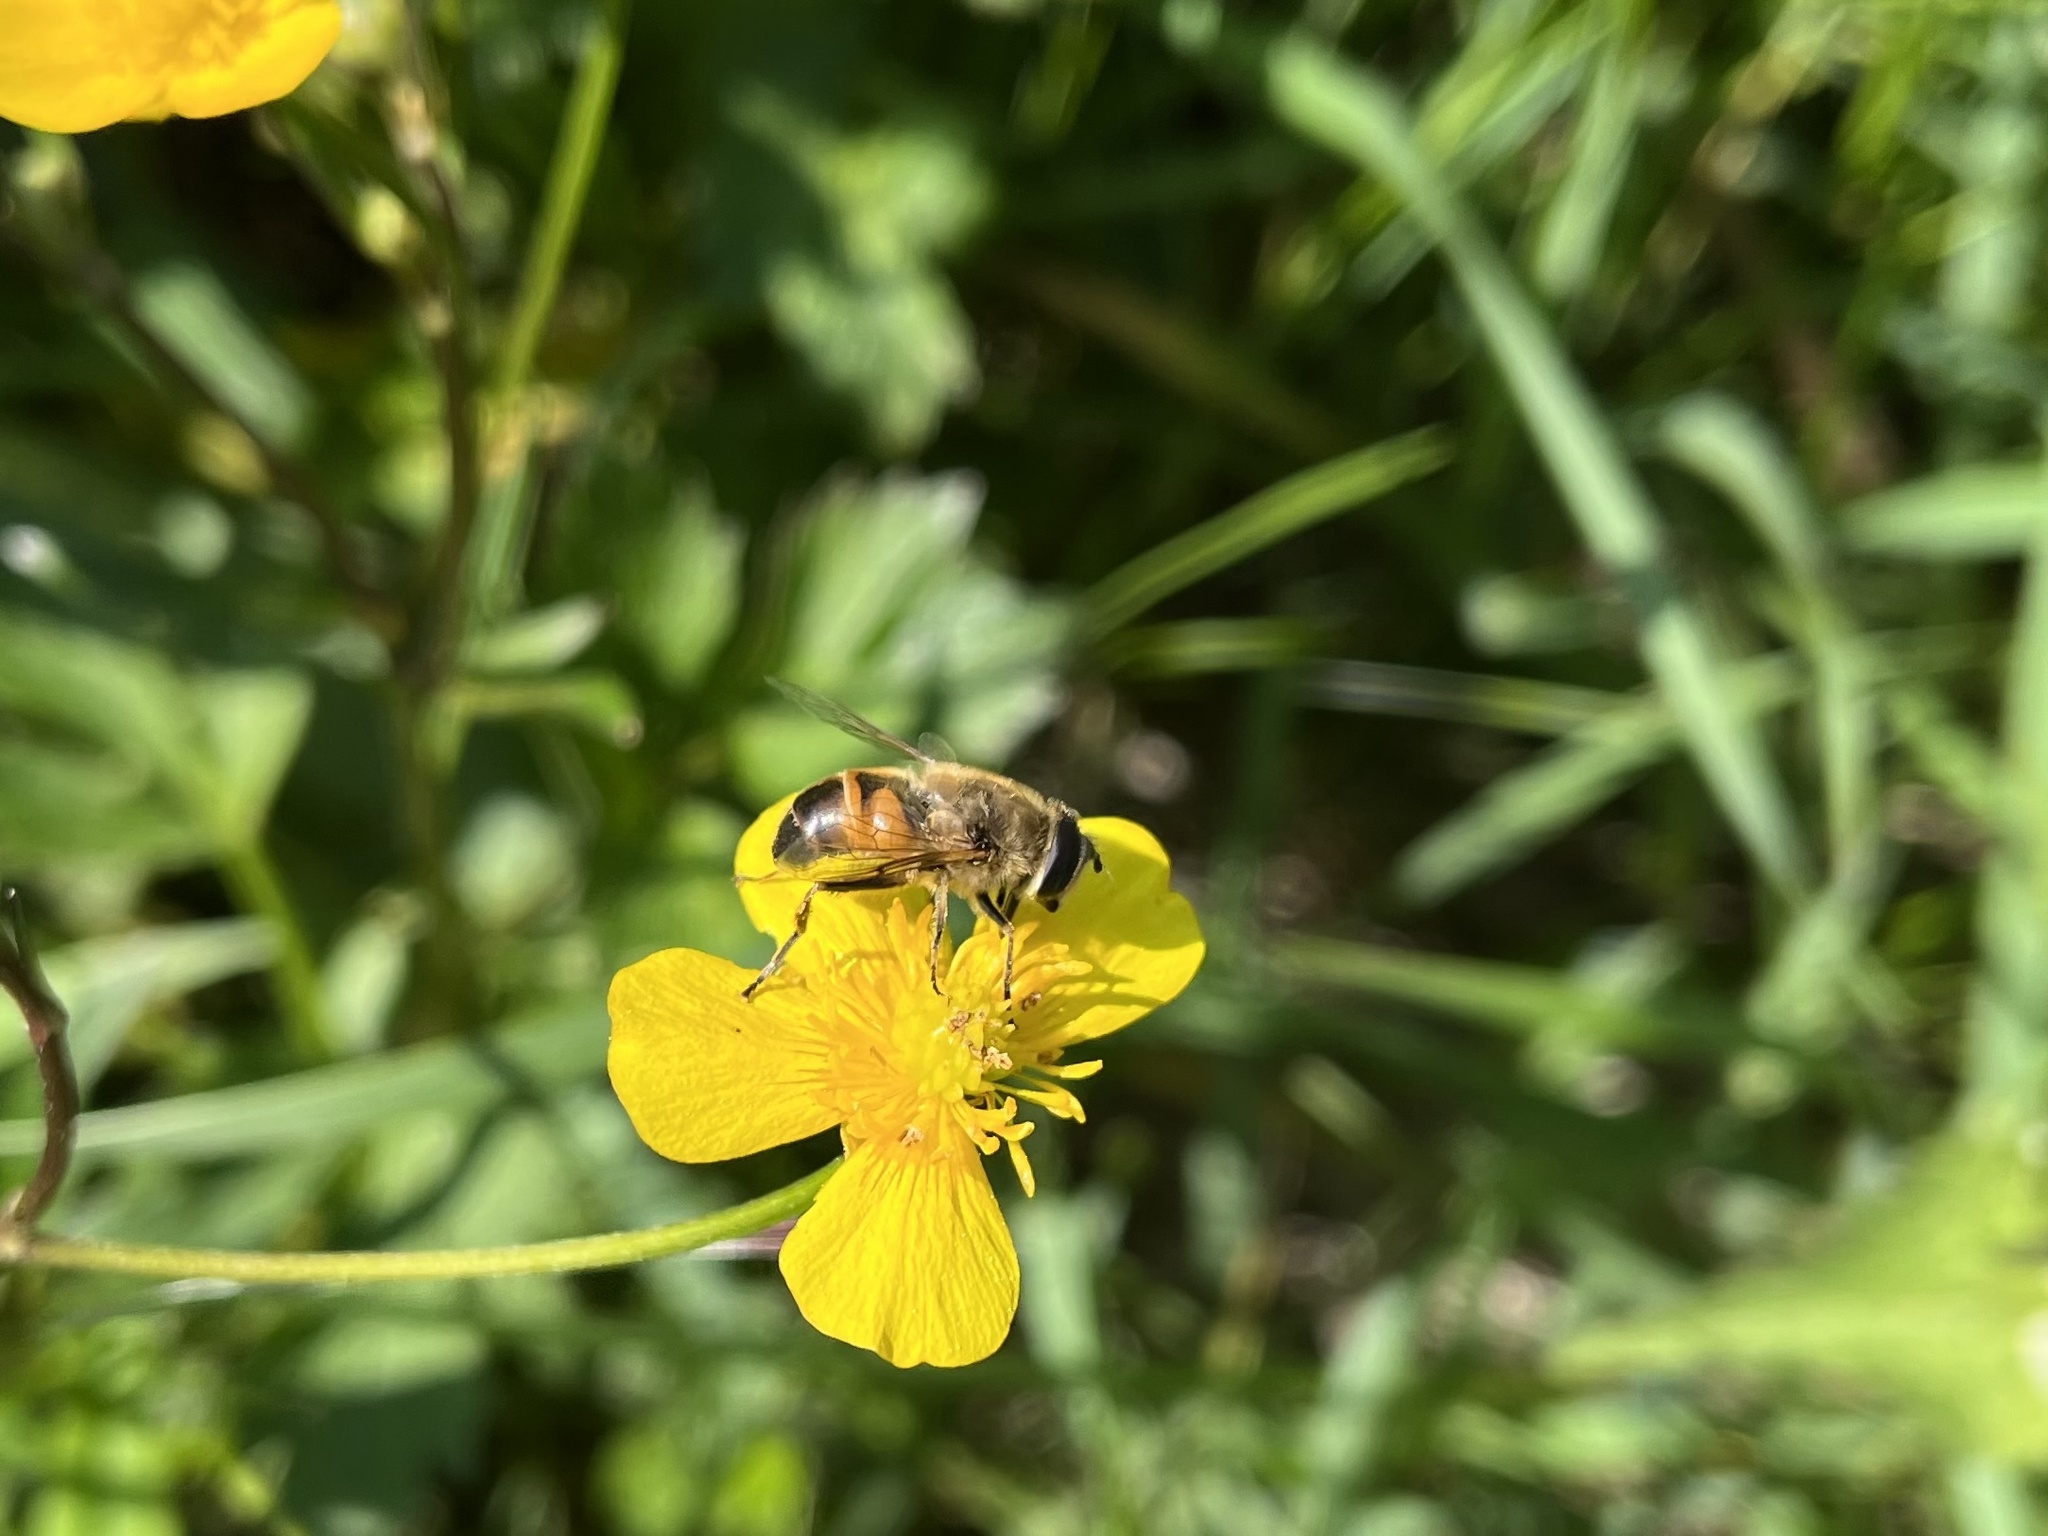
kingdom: Animalia
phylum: Arthropoda
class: Insecta
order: Diptera
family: Syrphidae
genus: Eristalis
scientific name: Eristalis tenax
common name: Drone fly
